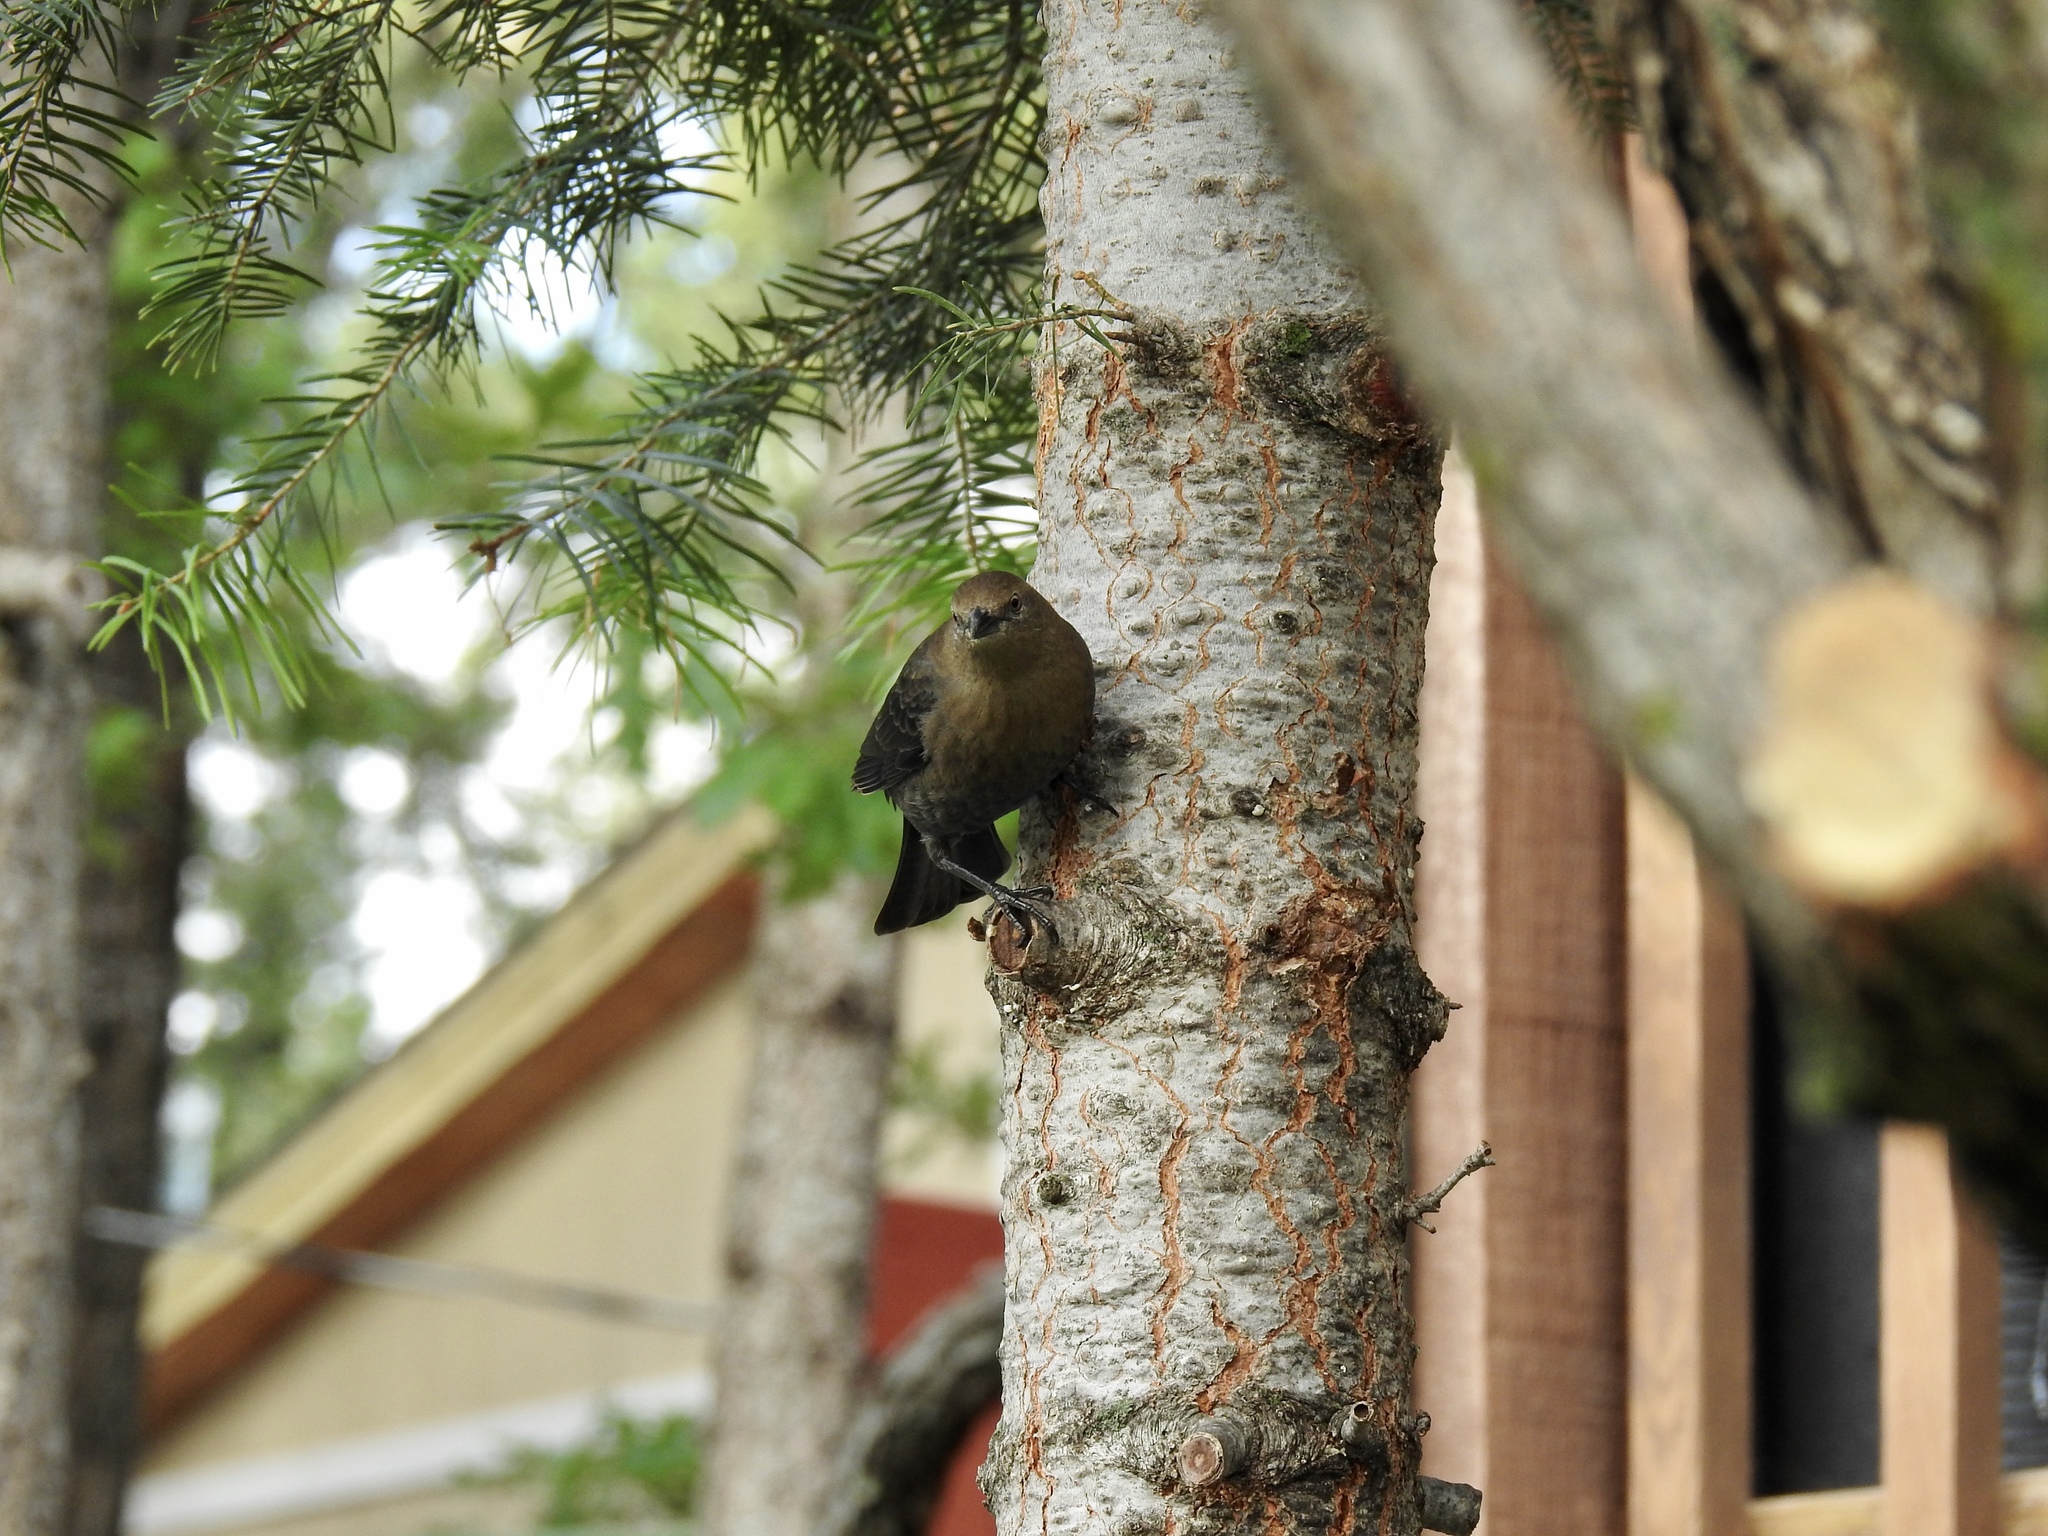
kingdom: Animalia
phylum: Chordata
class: Aves
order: Passeriformes
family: Icteridae
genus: Euphagus
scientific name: Euphagus cyanocephalus
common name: Brewer's blackbird
